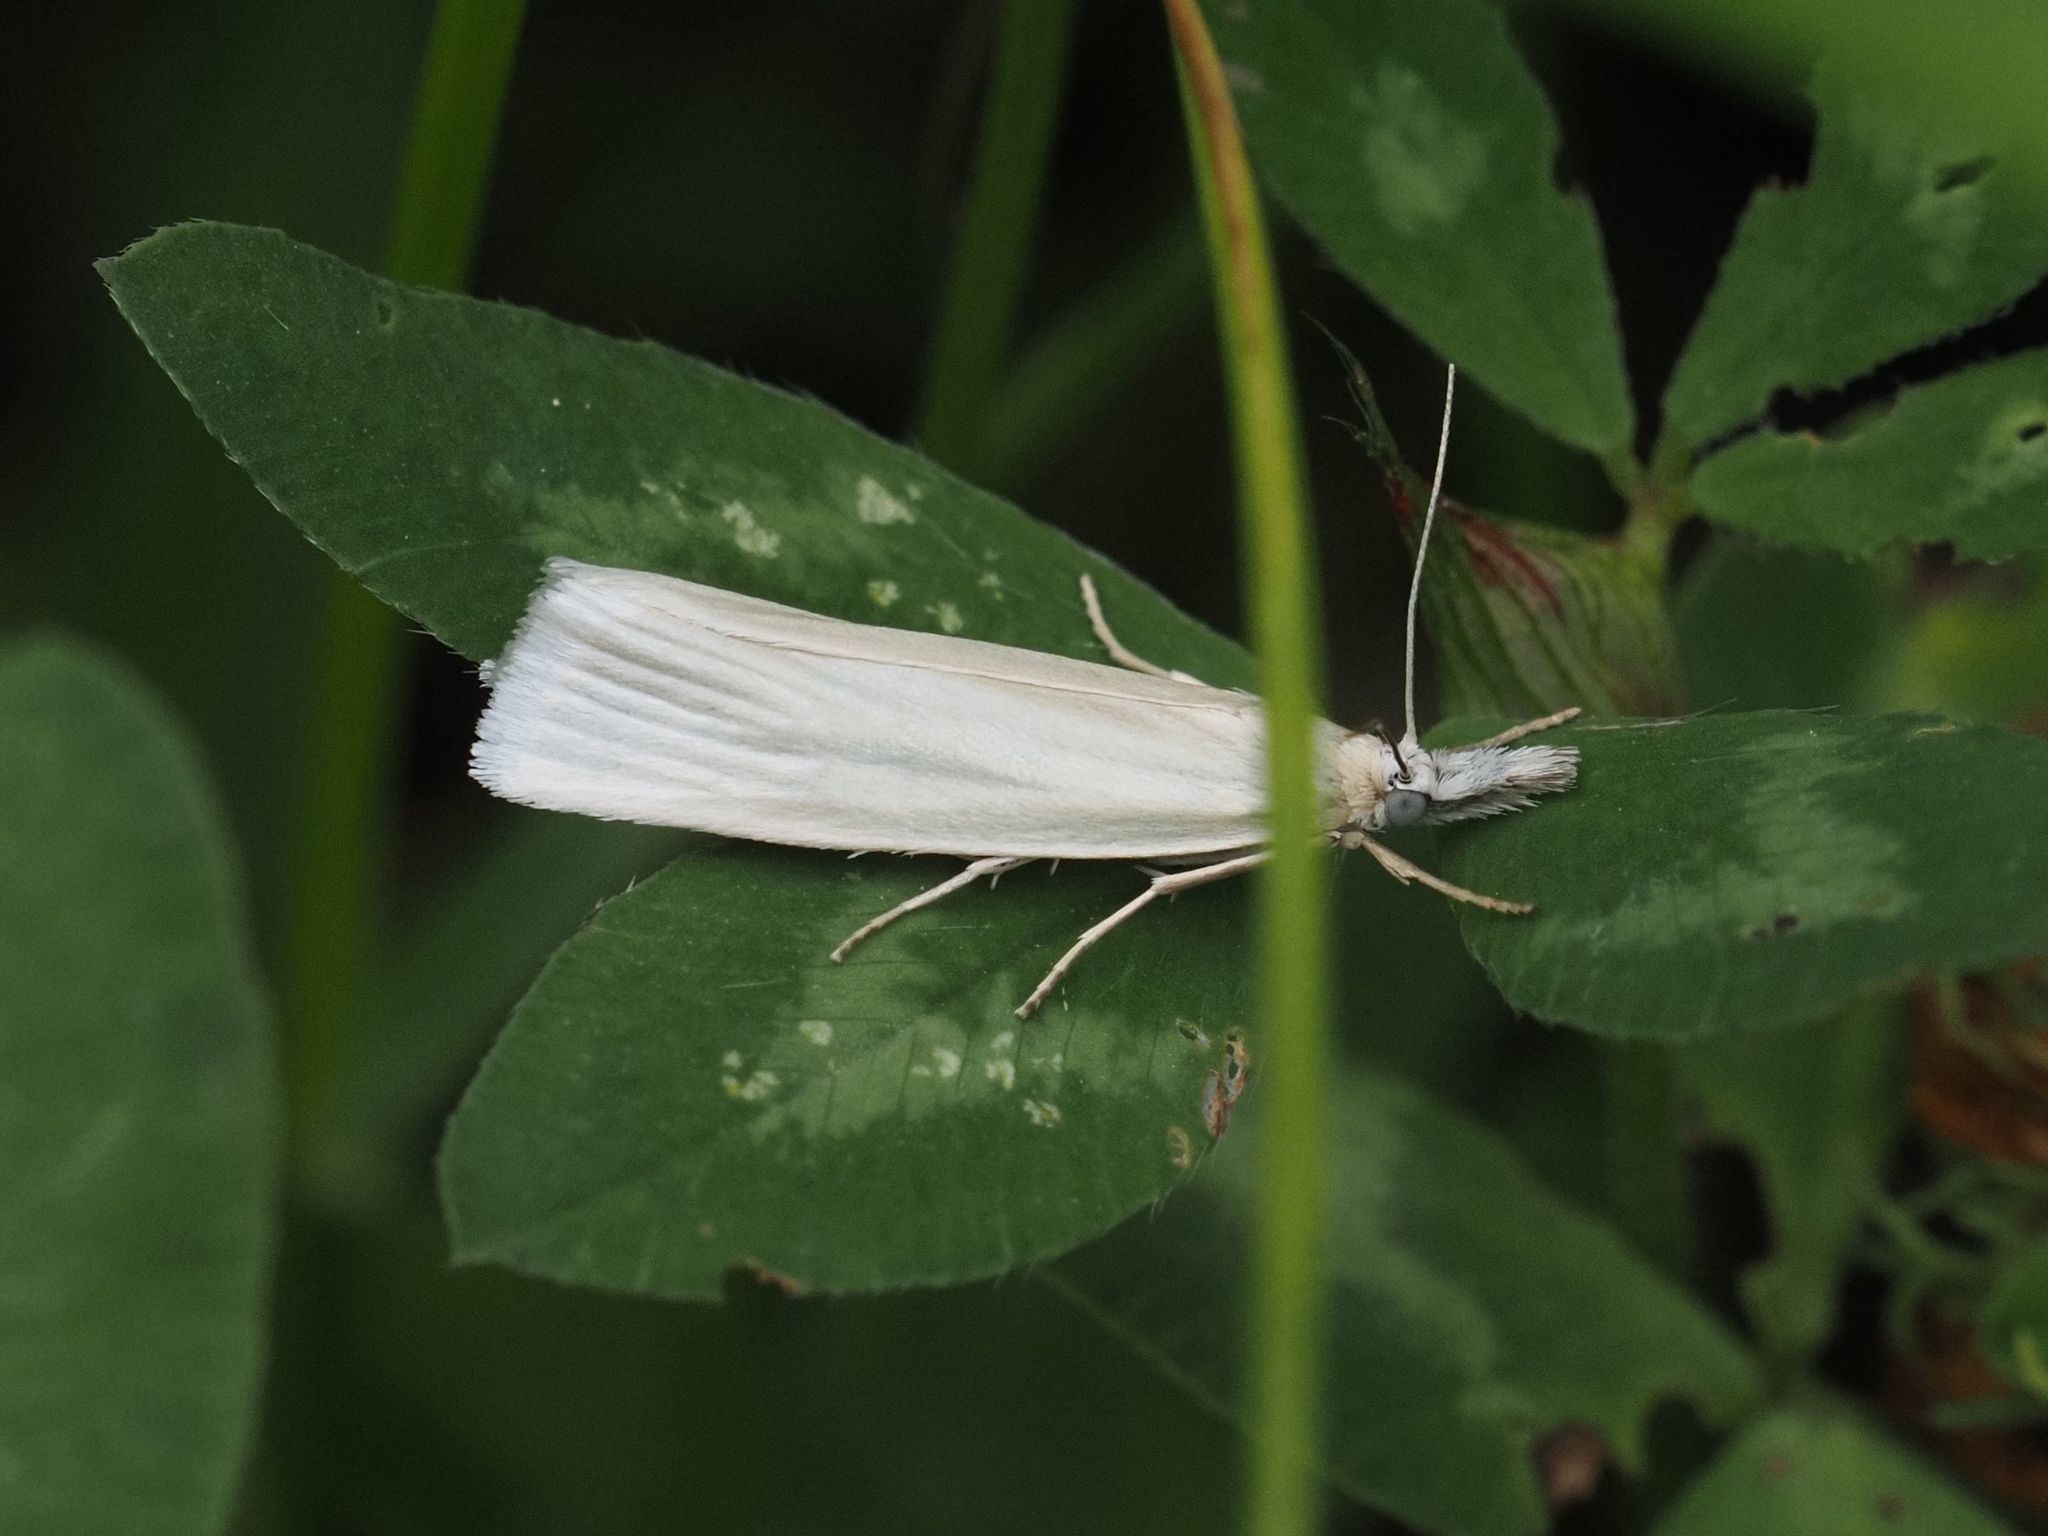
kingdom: Animalia
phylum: Arthropoda
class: Insecta
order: Lepidoptera
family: Crambidae
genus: Crambus
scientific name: Crambus perlellus
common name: Yellow satin veneer
